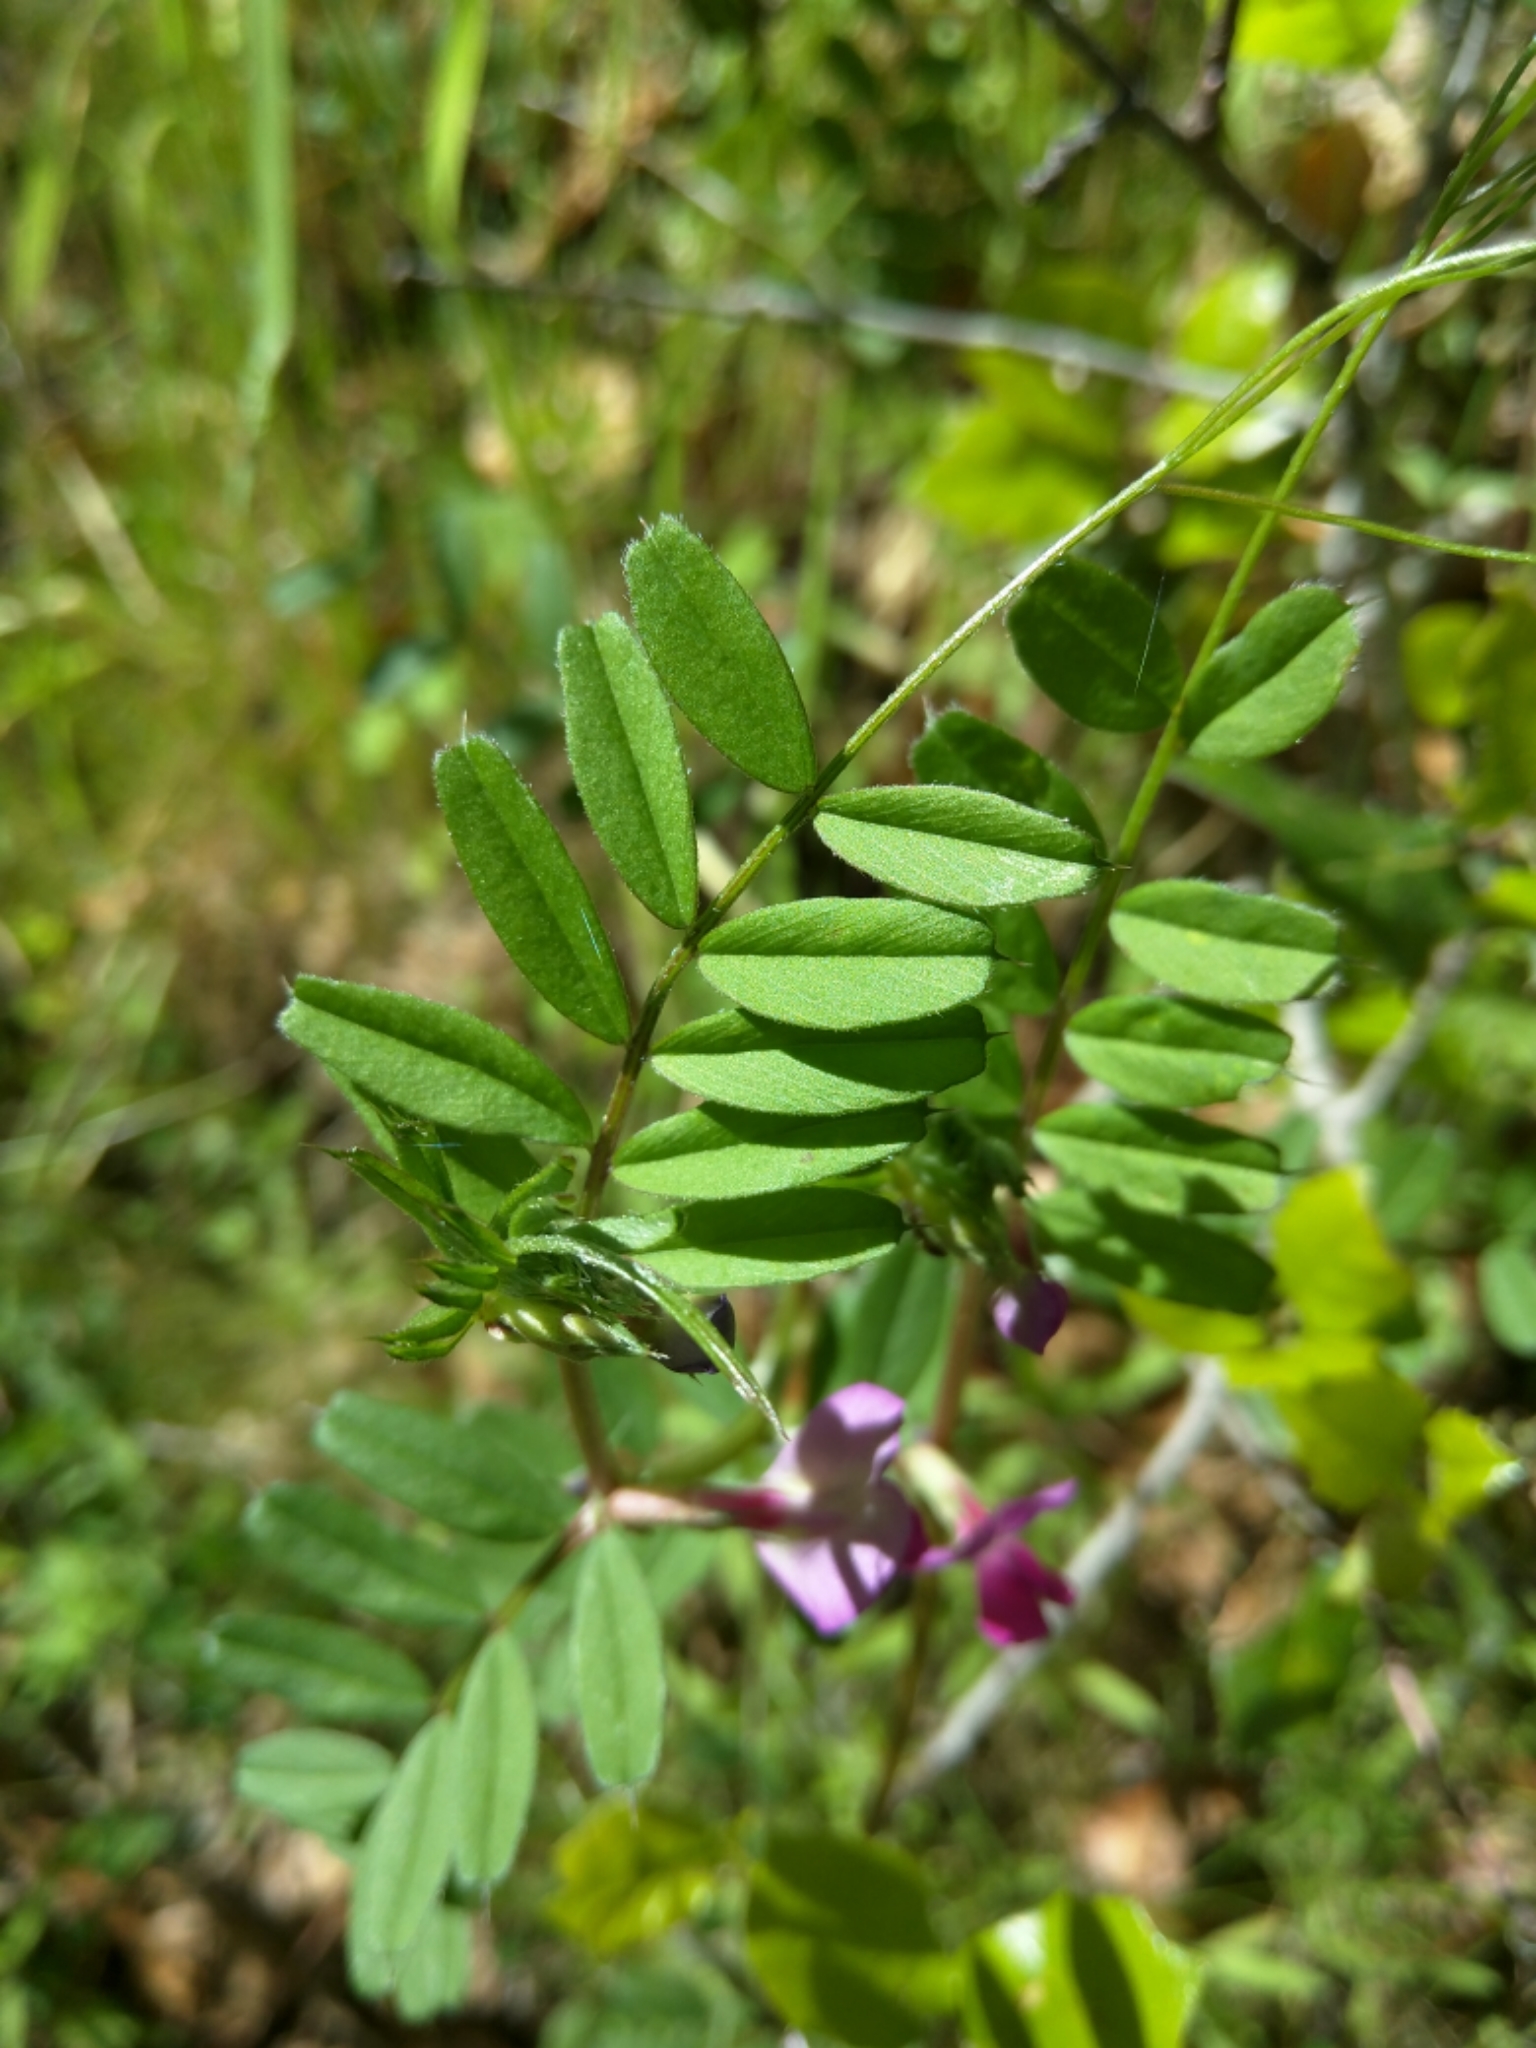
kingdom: Plantae
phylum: Tracheophyta
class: Magnoliopsida
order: Fabales
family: Fabaceae
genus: Vicia
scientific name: Vicia sativa
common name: Garden vetch
